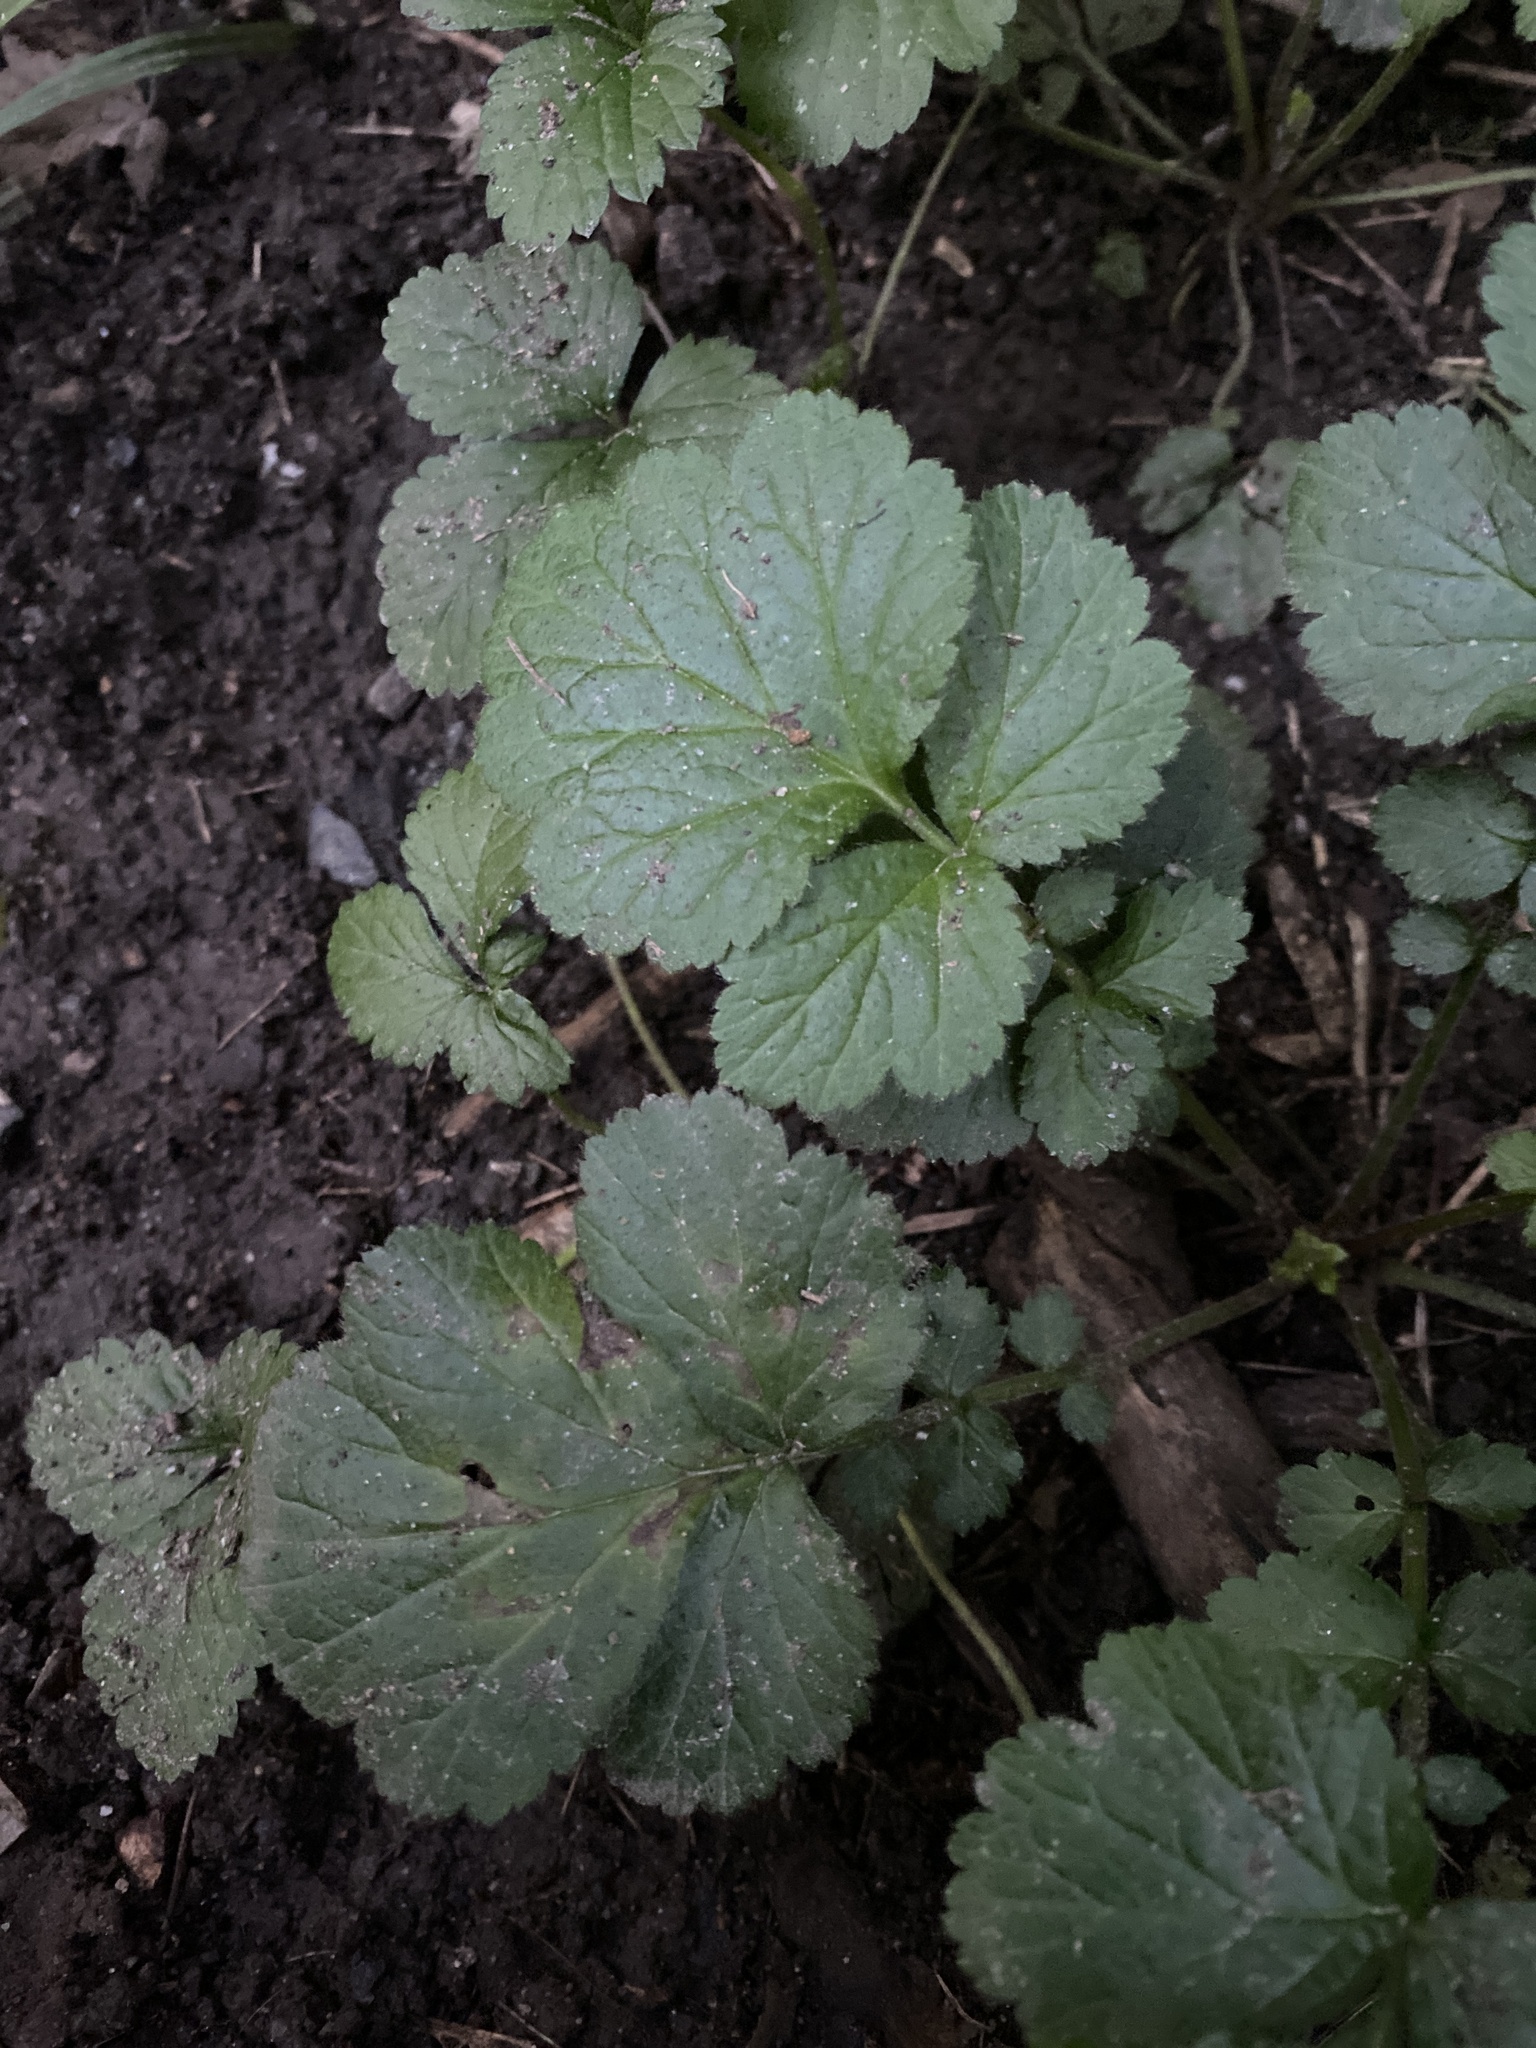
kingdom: Plantae
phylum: Tracheophyta
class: Magnoliopsida
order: Rosales
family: Rosaceae
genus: Geum
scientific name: Geum urbanum
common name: Wood avens
